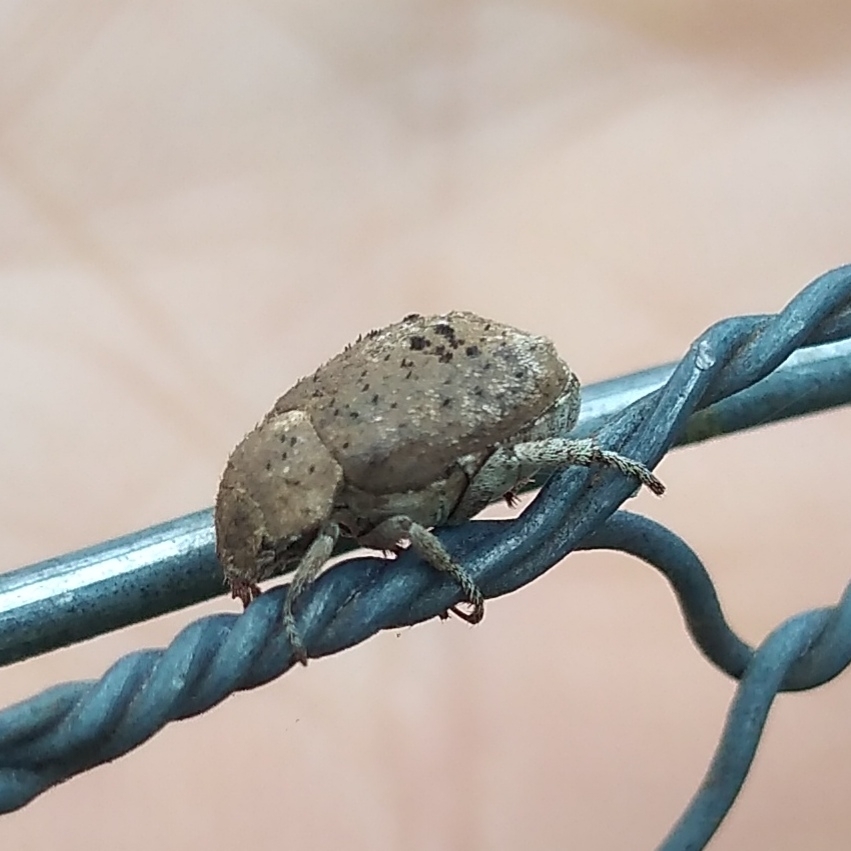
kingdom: Animalia
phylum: Arthropoda
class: Insecta
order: Coleoptera
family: Scarabaeidae
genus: Hoplia
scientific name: Hoplia sordida
